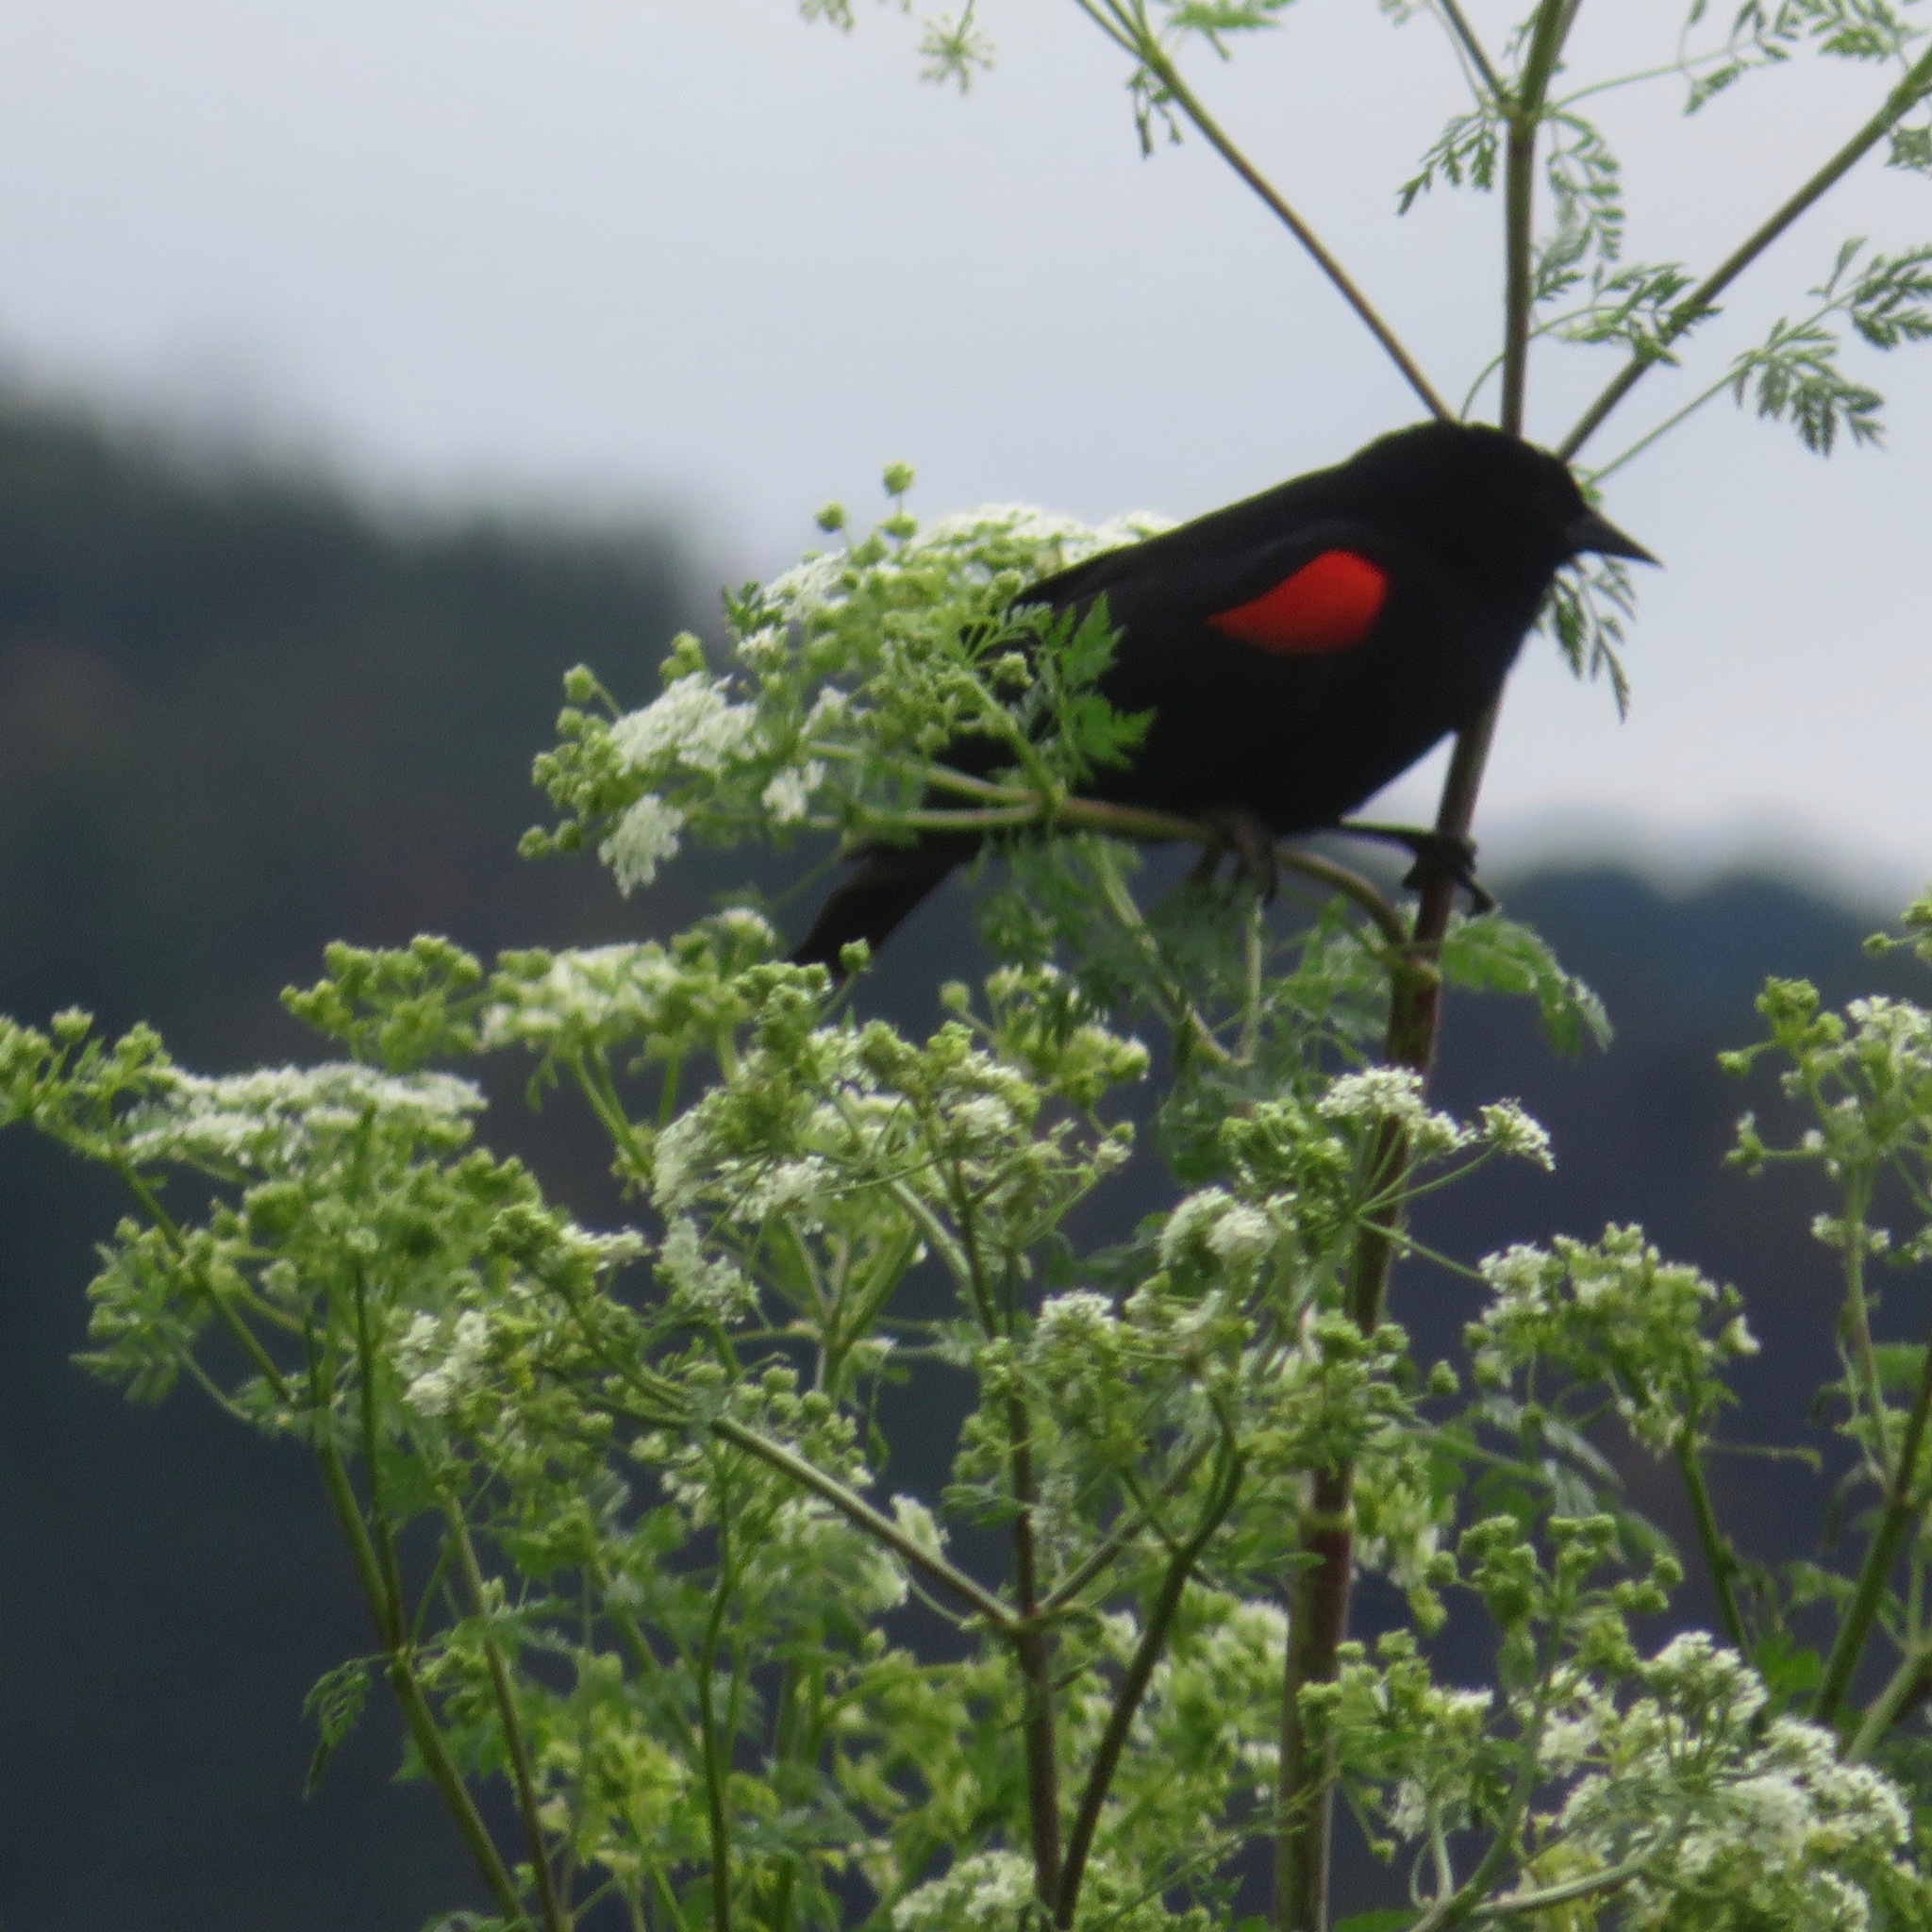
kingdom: Animalia
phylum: Chordata
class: Aves
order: Passeriformes
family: Icteridae
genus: Agelaius
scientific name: Agelaius phoeniceus
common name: Red-winged blackbird
